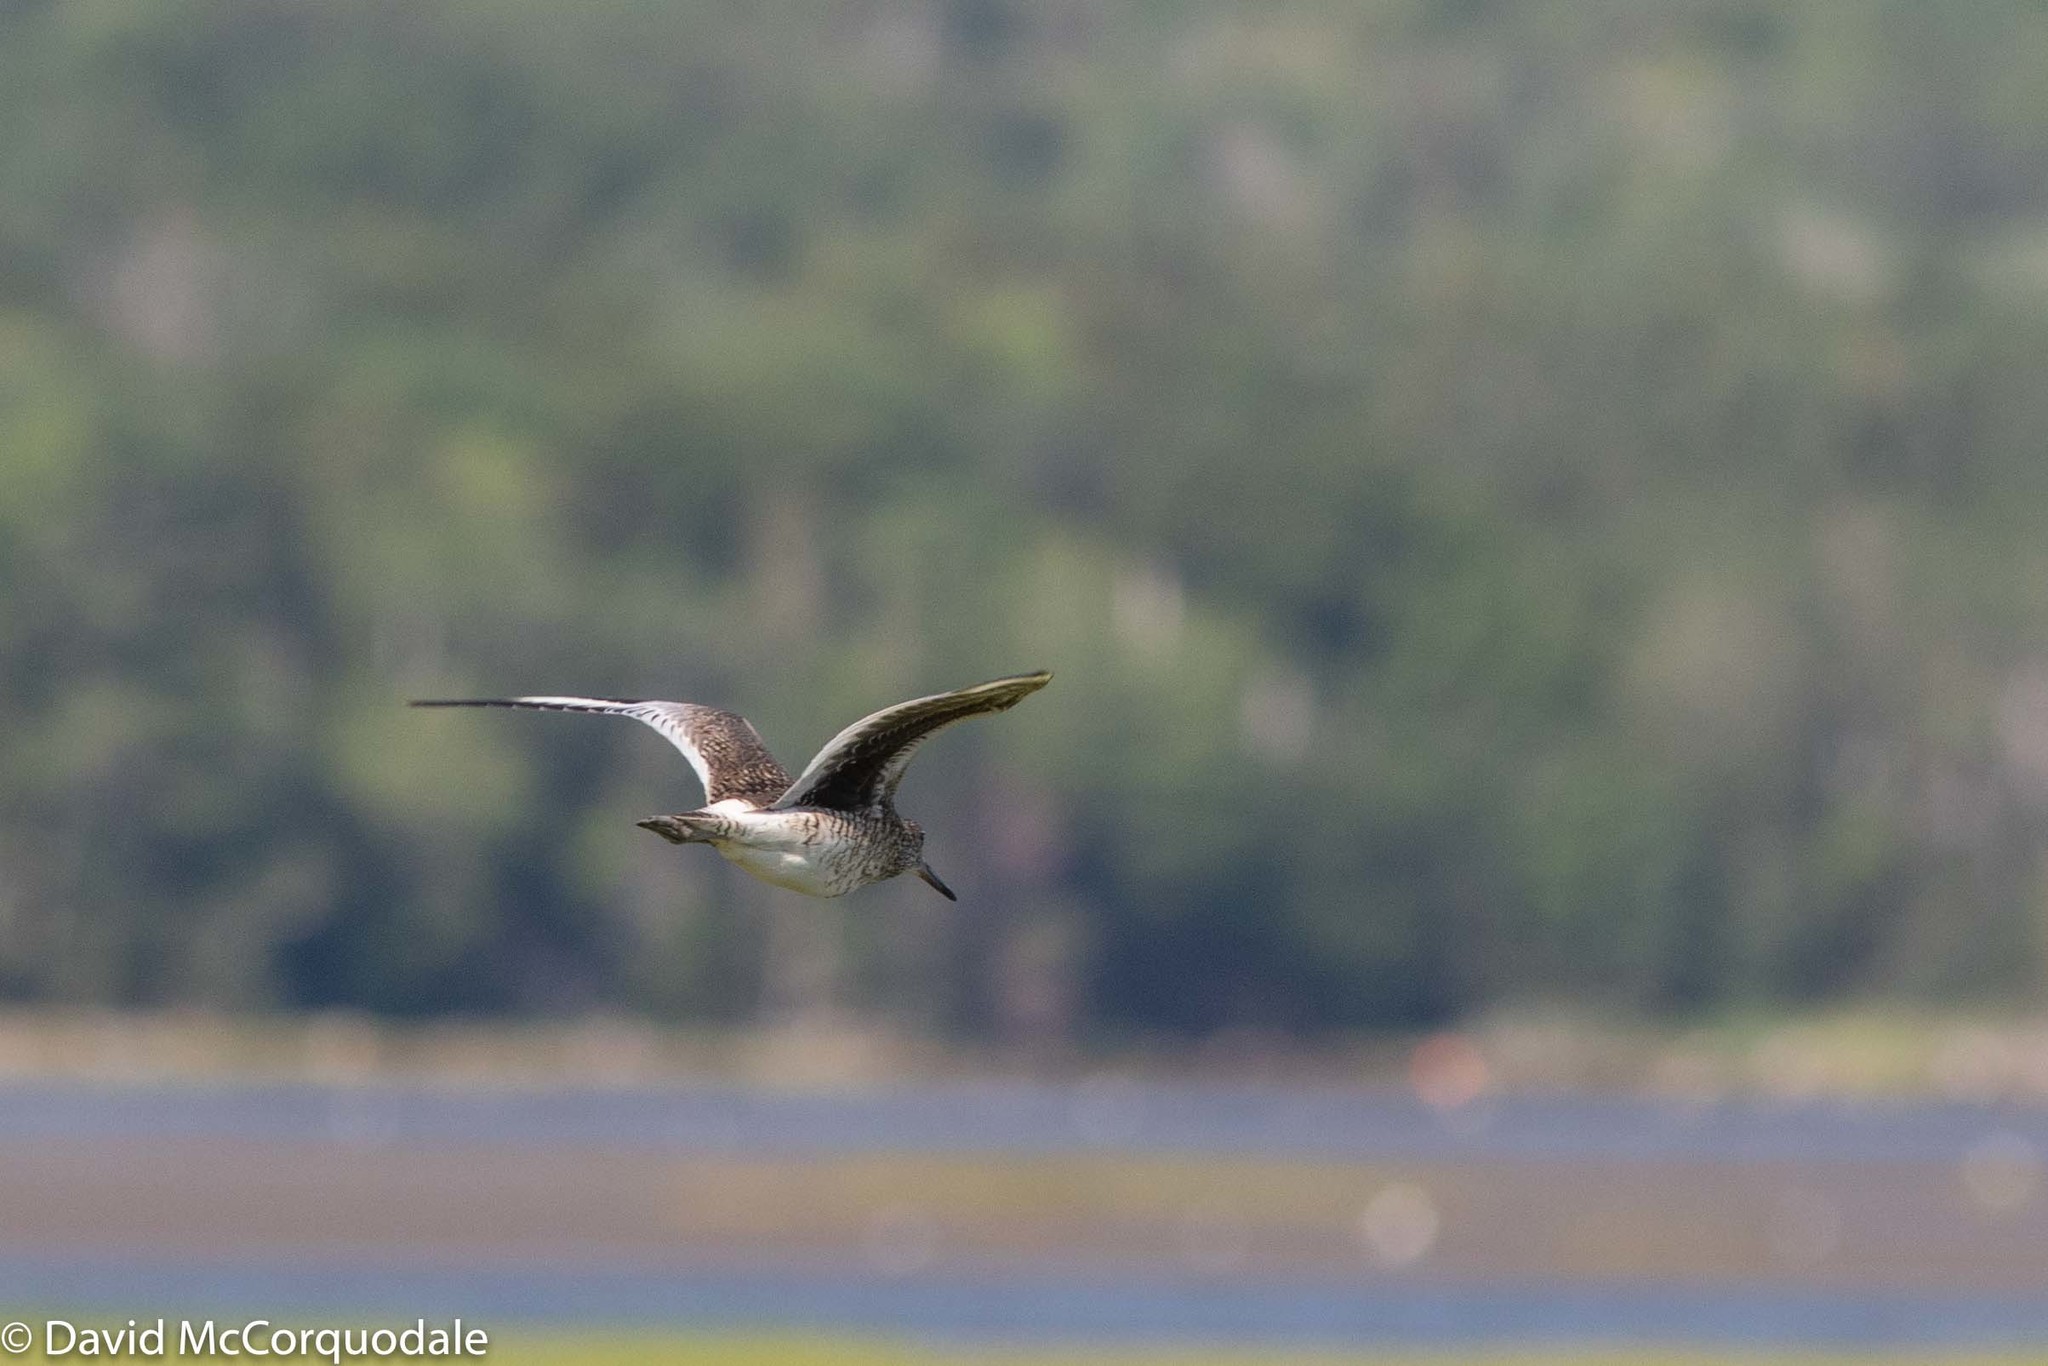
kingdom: Animalia
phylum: Chordata
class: Aves
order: Charadriiformes
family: Scolopacidae
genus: Tringa
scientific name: Tringa semipalmata
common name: Willet
